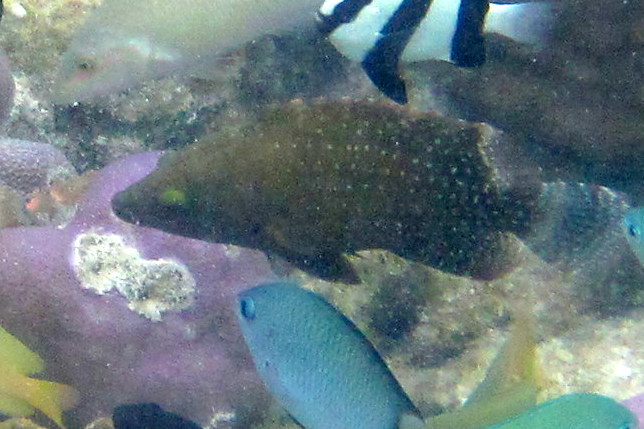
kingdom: Animalia
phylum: Chordata
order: Perciformes
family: Labridae
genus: Cheilinus
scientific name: Cheilinus chlorourus
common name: Floral wrasse
